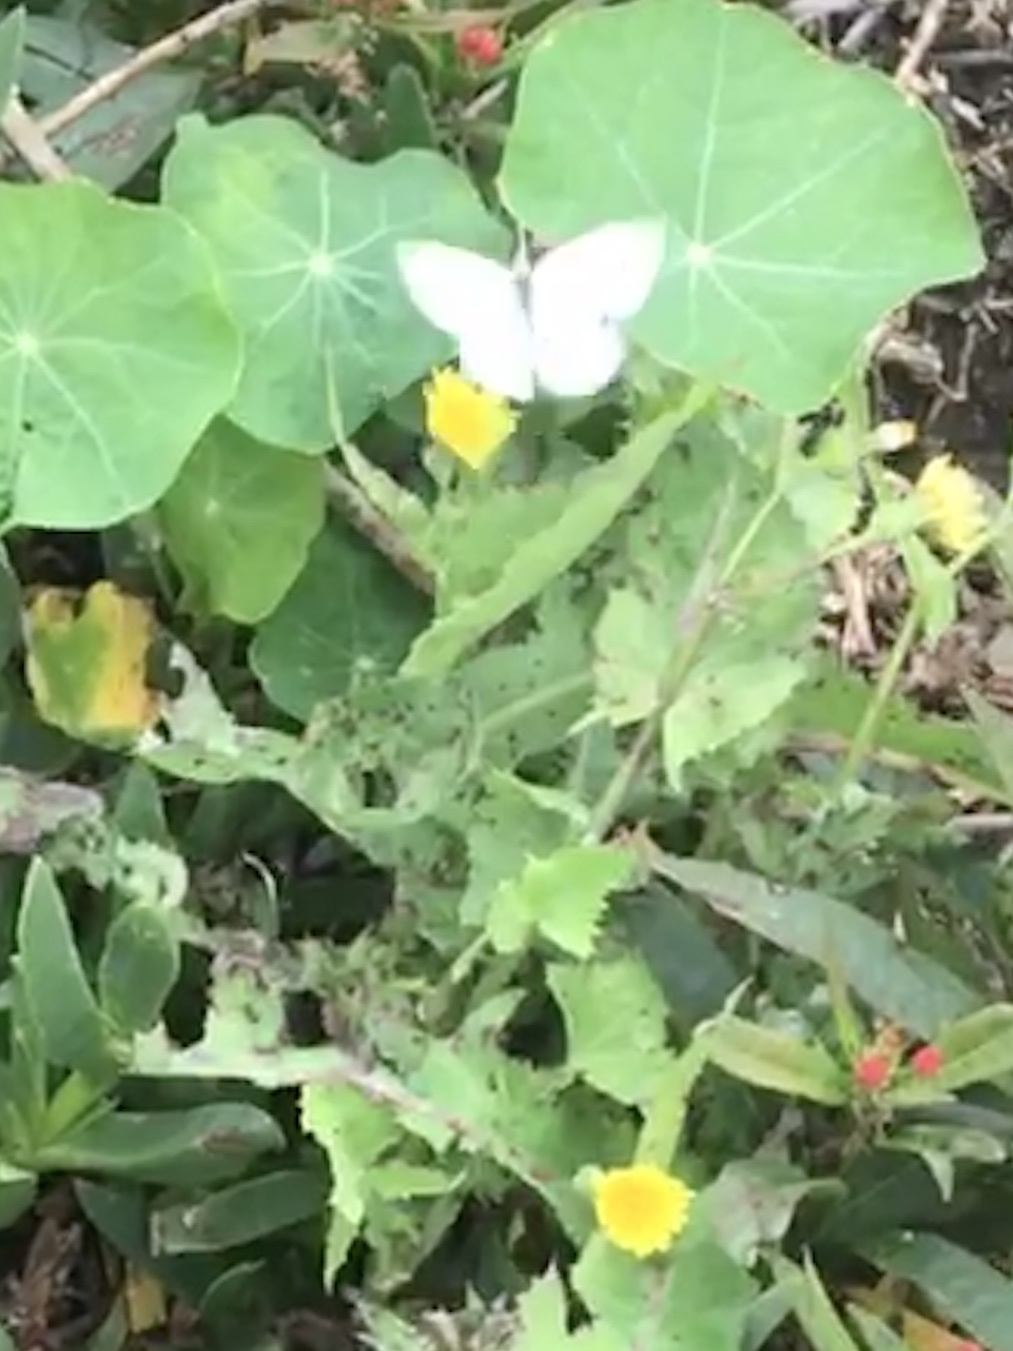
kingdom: Animalia
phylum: Arthropoda
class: Insecta
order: Lepidoptera
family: Pieridae
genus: Pieris
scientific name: Pieris rapae
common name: Small white
